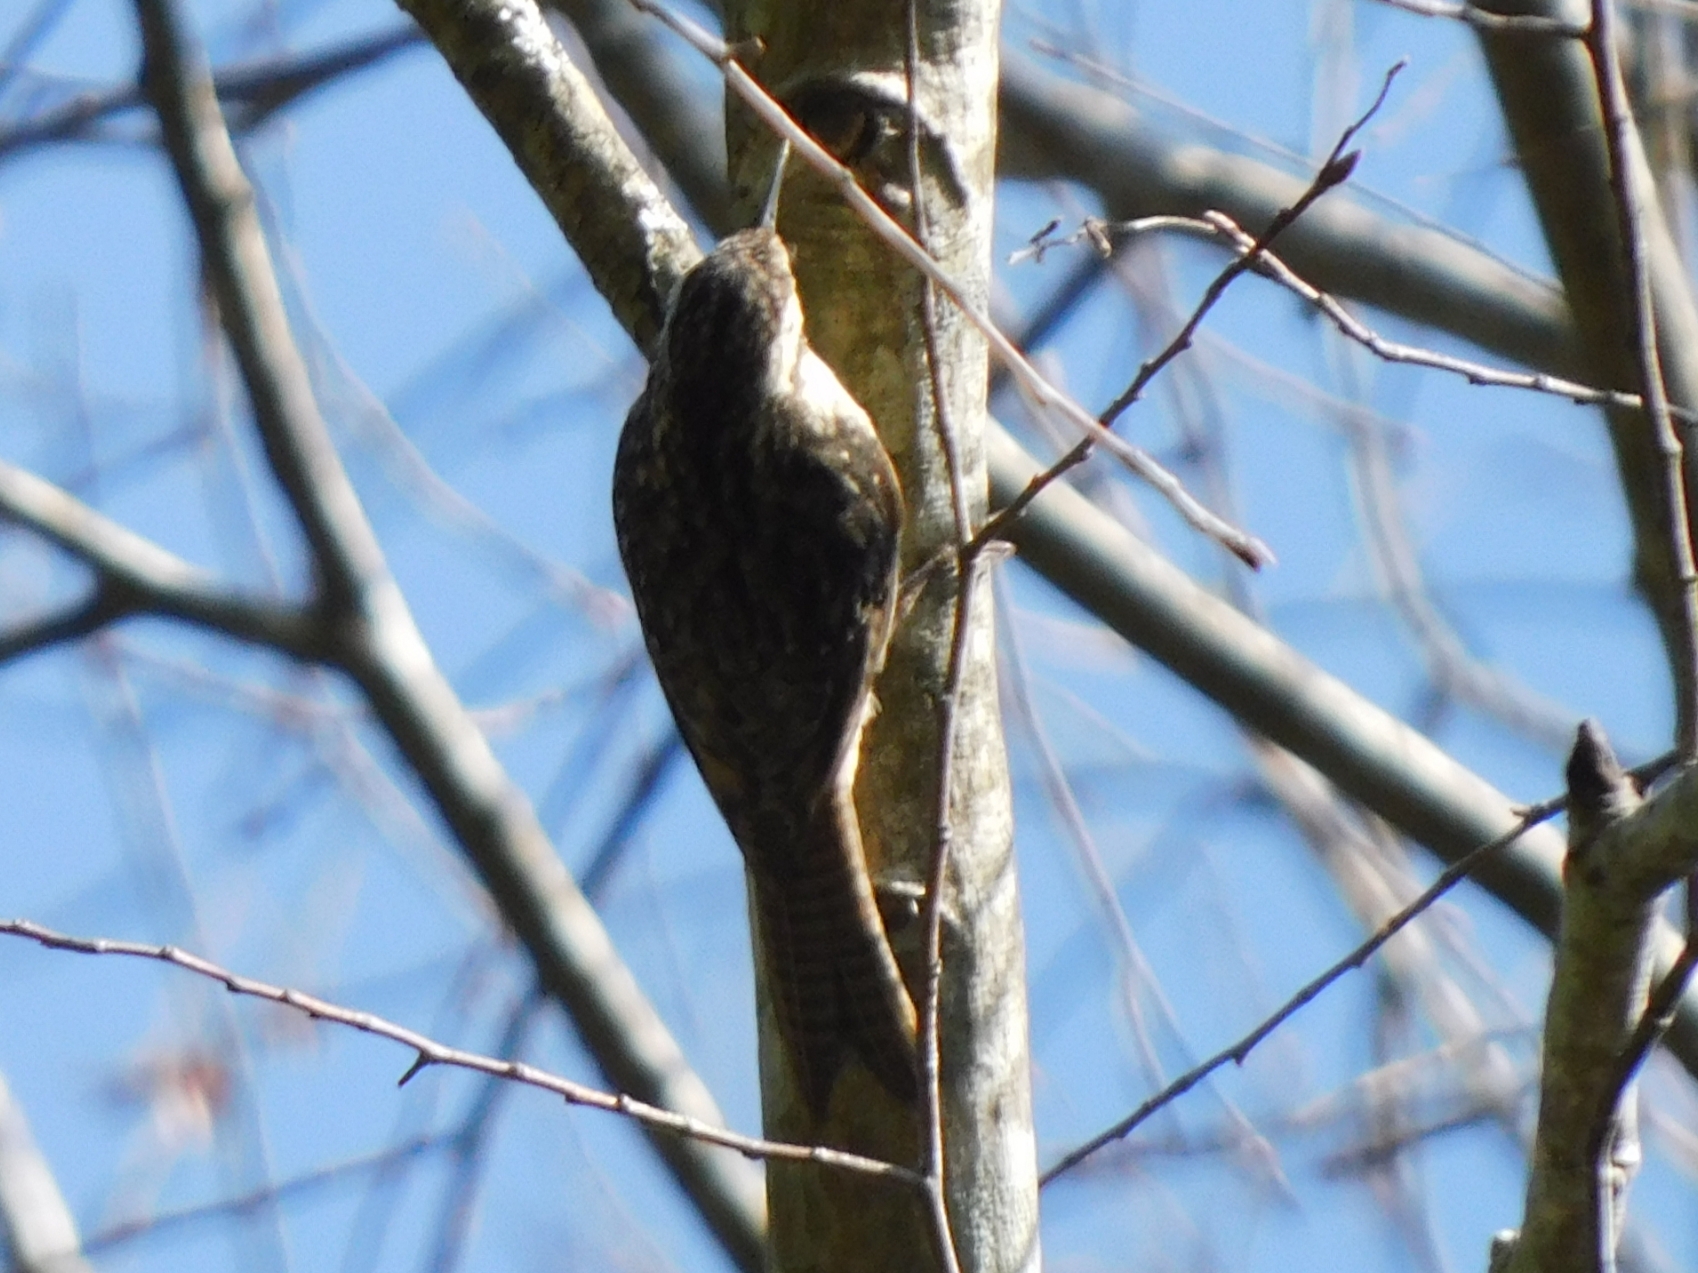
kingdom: Animalia
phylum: Chordata
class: Aves
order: Passeriformes
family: Certhiidae
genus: Certhia
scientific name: Certhia himalayana
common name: Bar-tailed treecreeper
